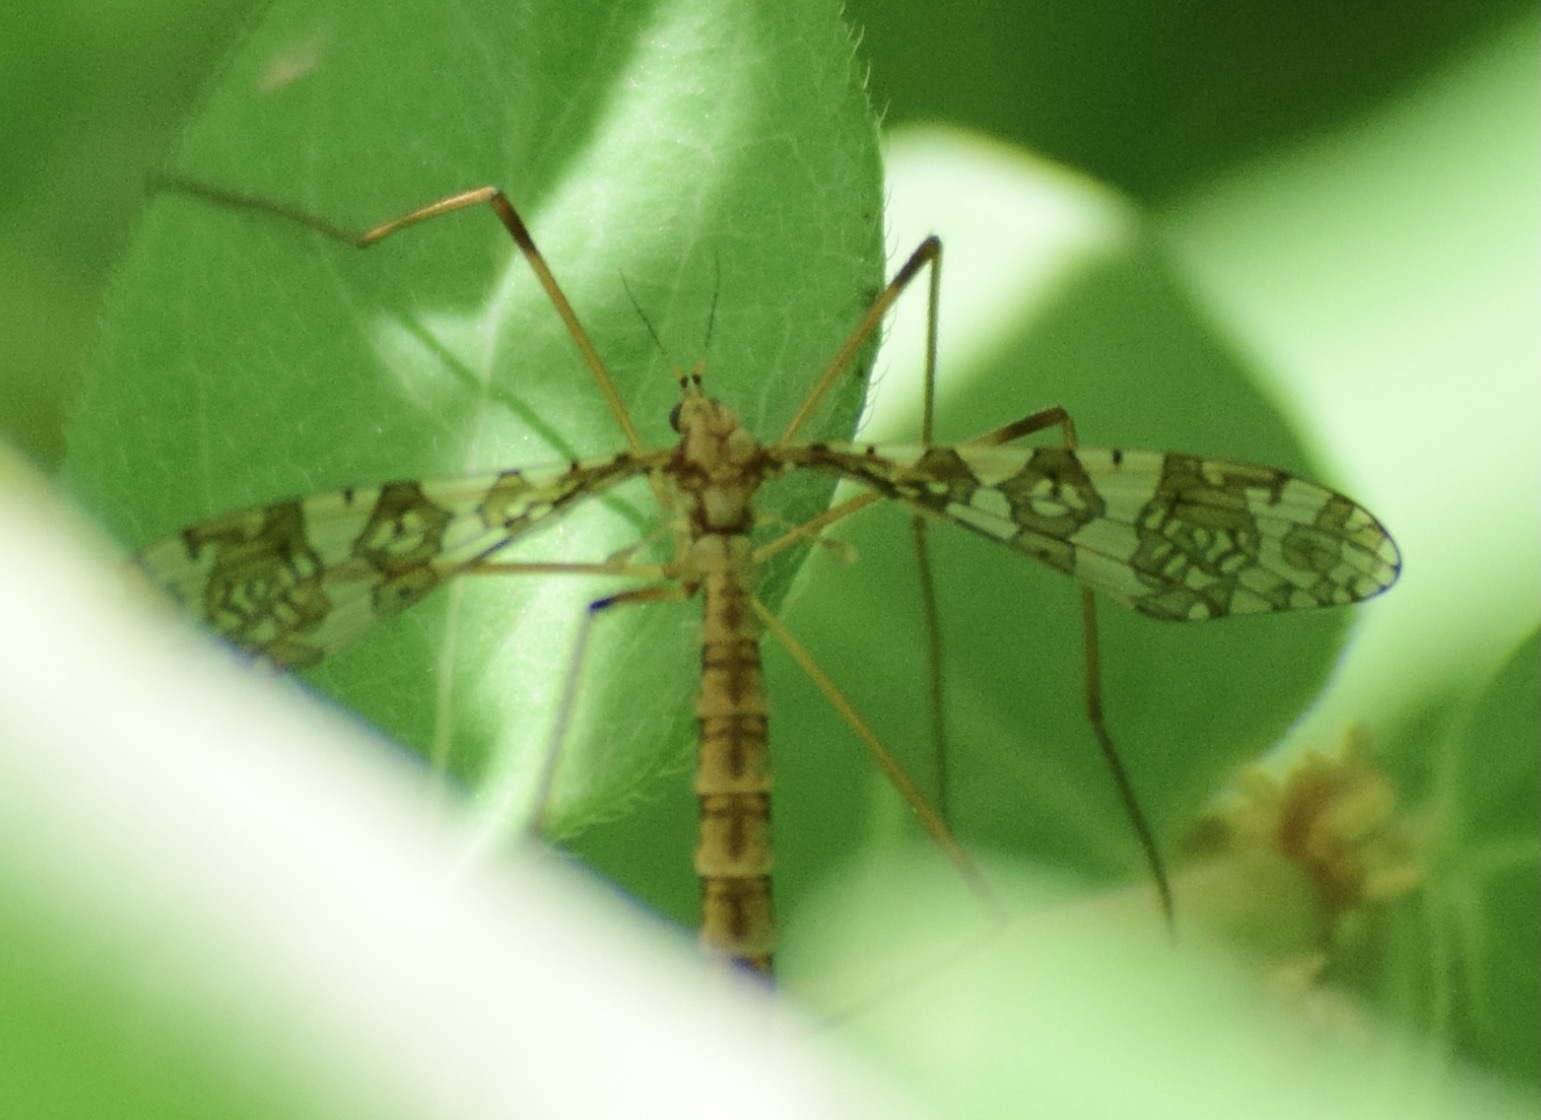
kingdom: Animalia
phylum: Arthropoda
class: Insecta
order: Diptera
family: Limoniidae
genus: Epiphragma
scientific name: Epiphragma fasciapenne
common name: Band-winged crane fly
